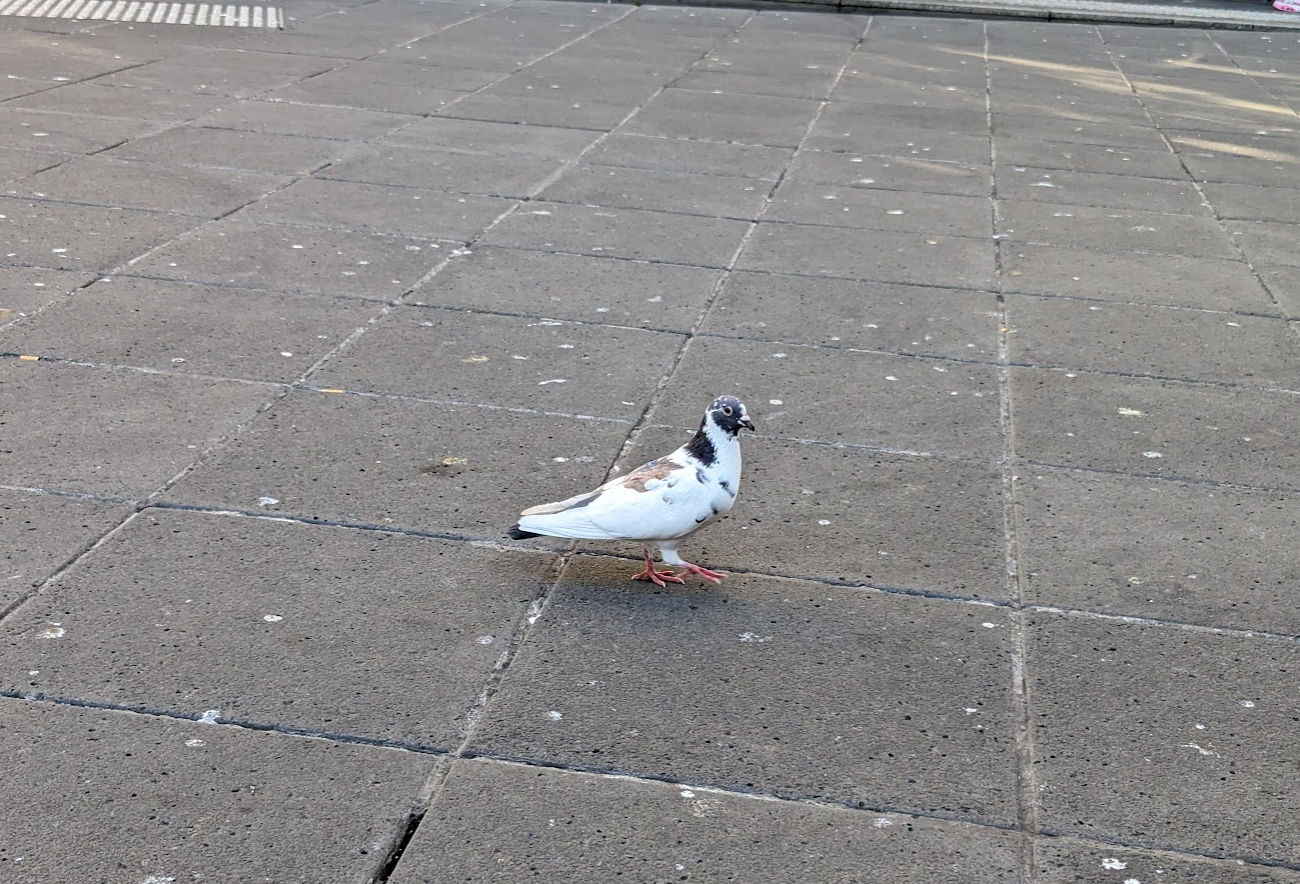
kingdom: Animalia
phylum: Chordata
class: Aves
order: Columbiformes
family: Columbidae
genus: Columba
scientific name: Columba livia
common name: Rock pigeon
